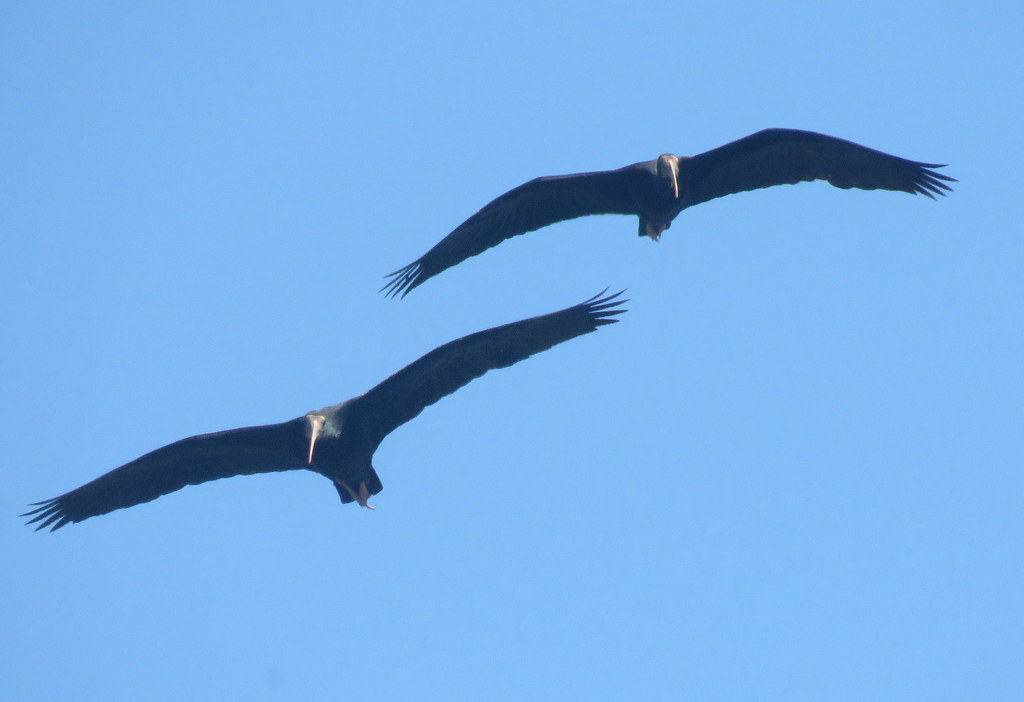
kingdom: Animalia
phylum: Chordata
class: Aves
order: Pelecaniformes
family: Threskiornithidae
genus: Phimosus
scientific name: Phimosus infuscatus
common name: Bare-faced ibis
